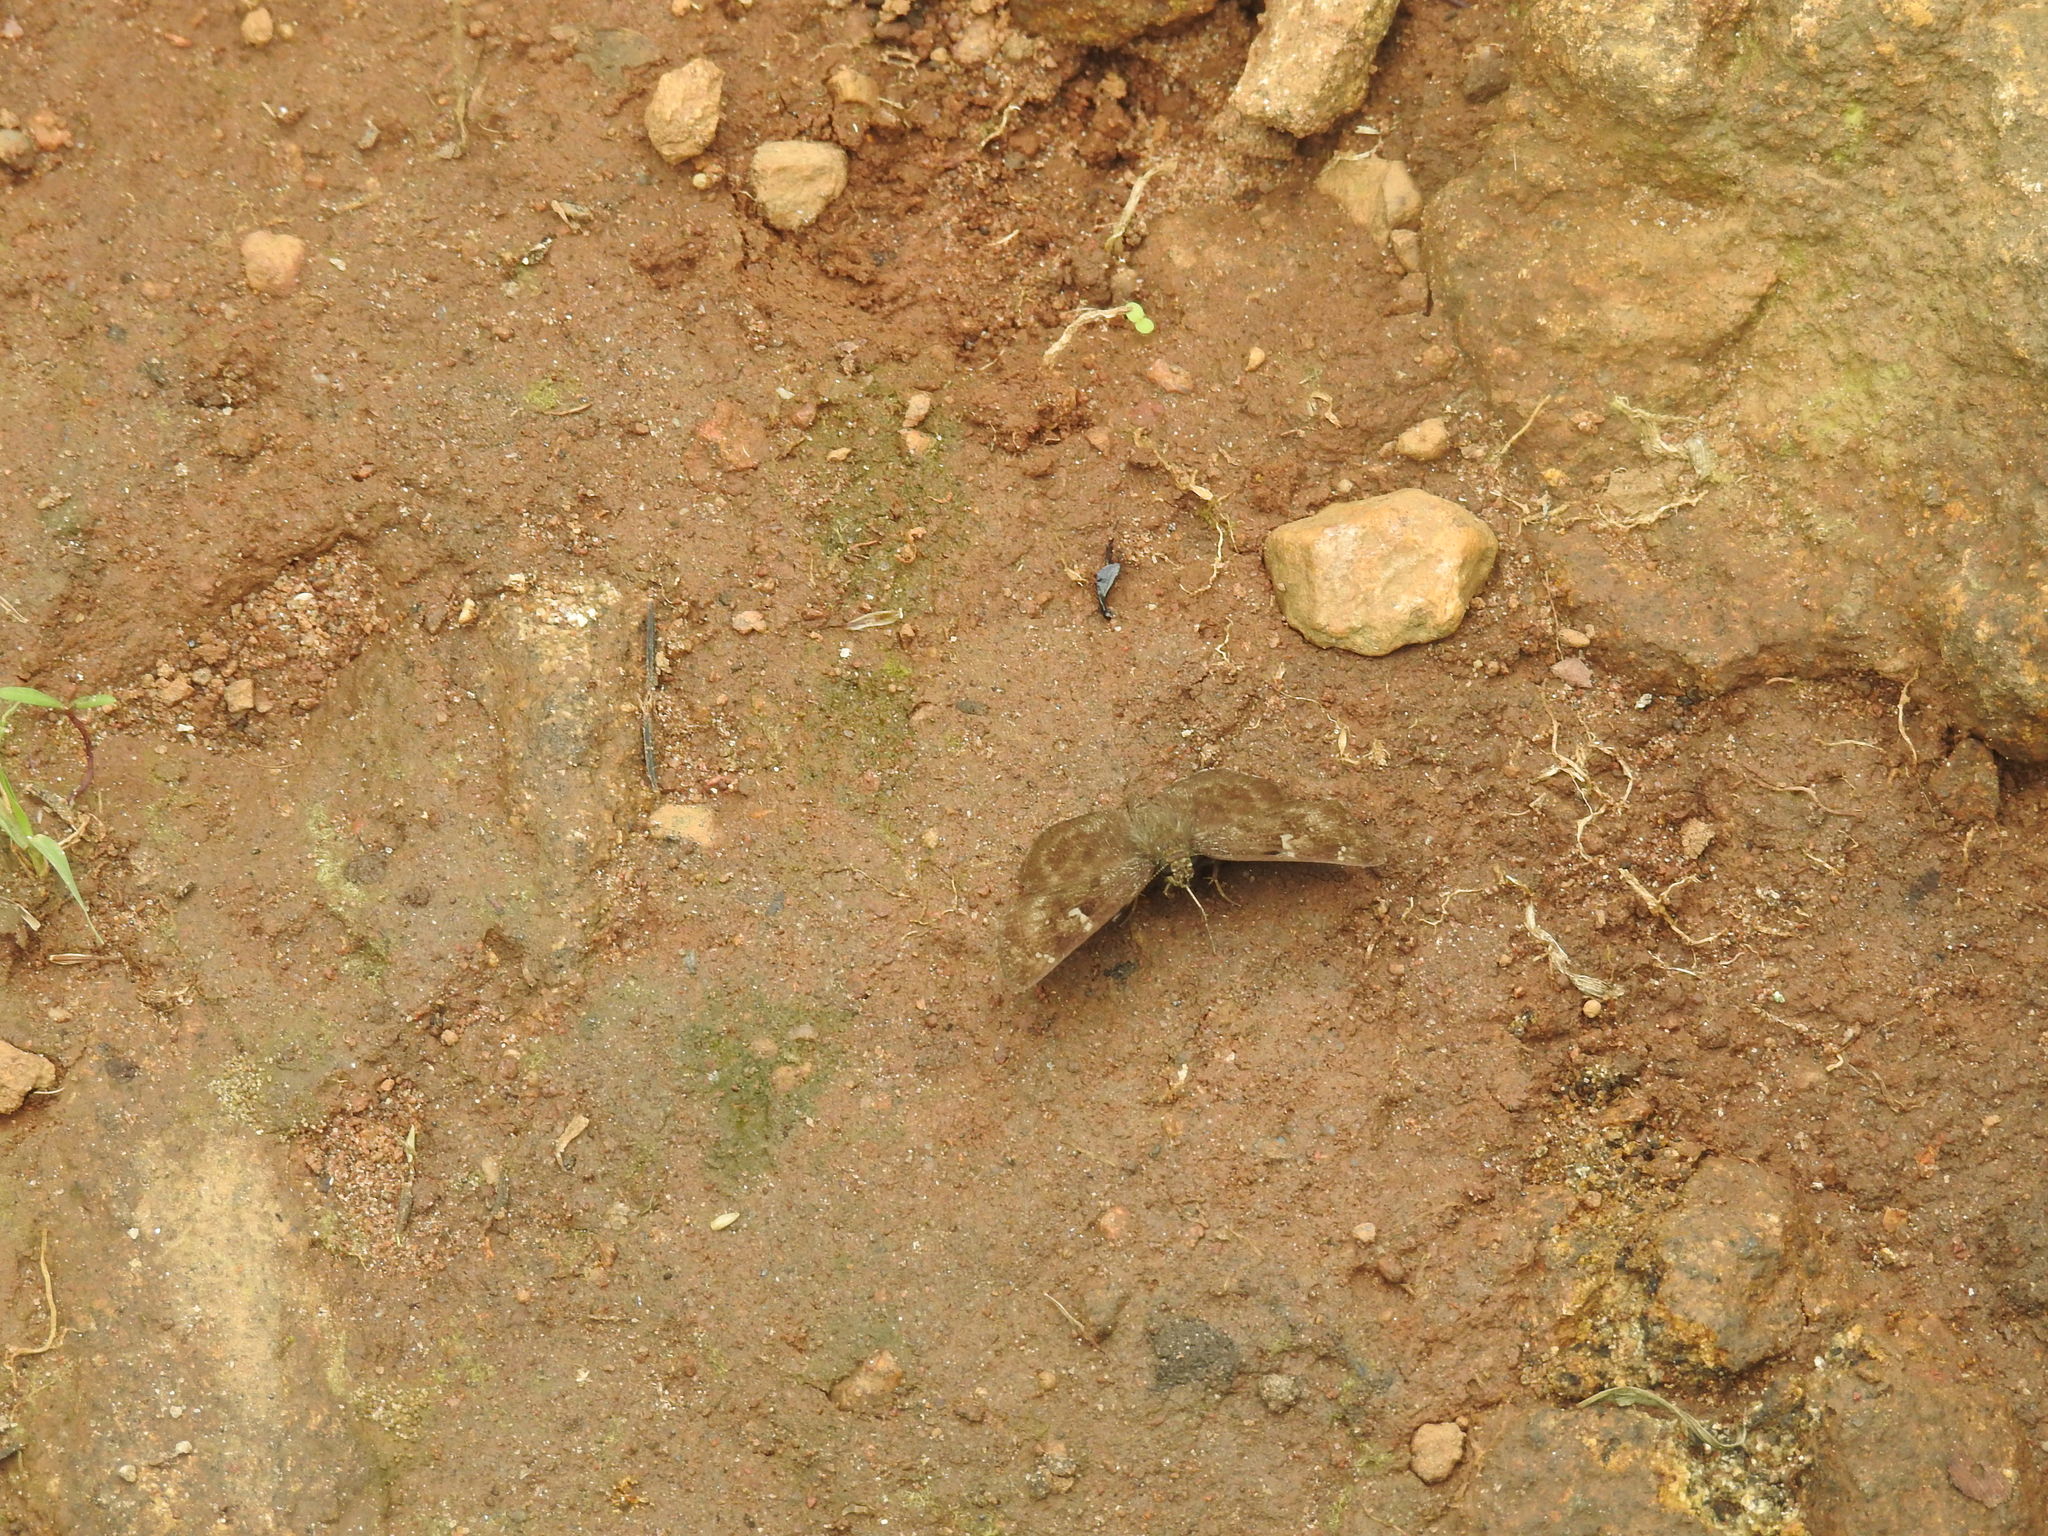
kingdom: Animalia
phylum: Arthropoda
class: Insecta
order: Lepidoptera
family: Hesperiidae
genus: Sarangesa
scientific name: Sarangesa dasahara
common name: Common small flat
